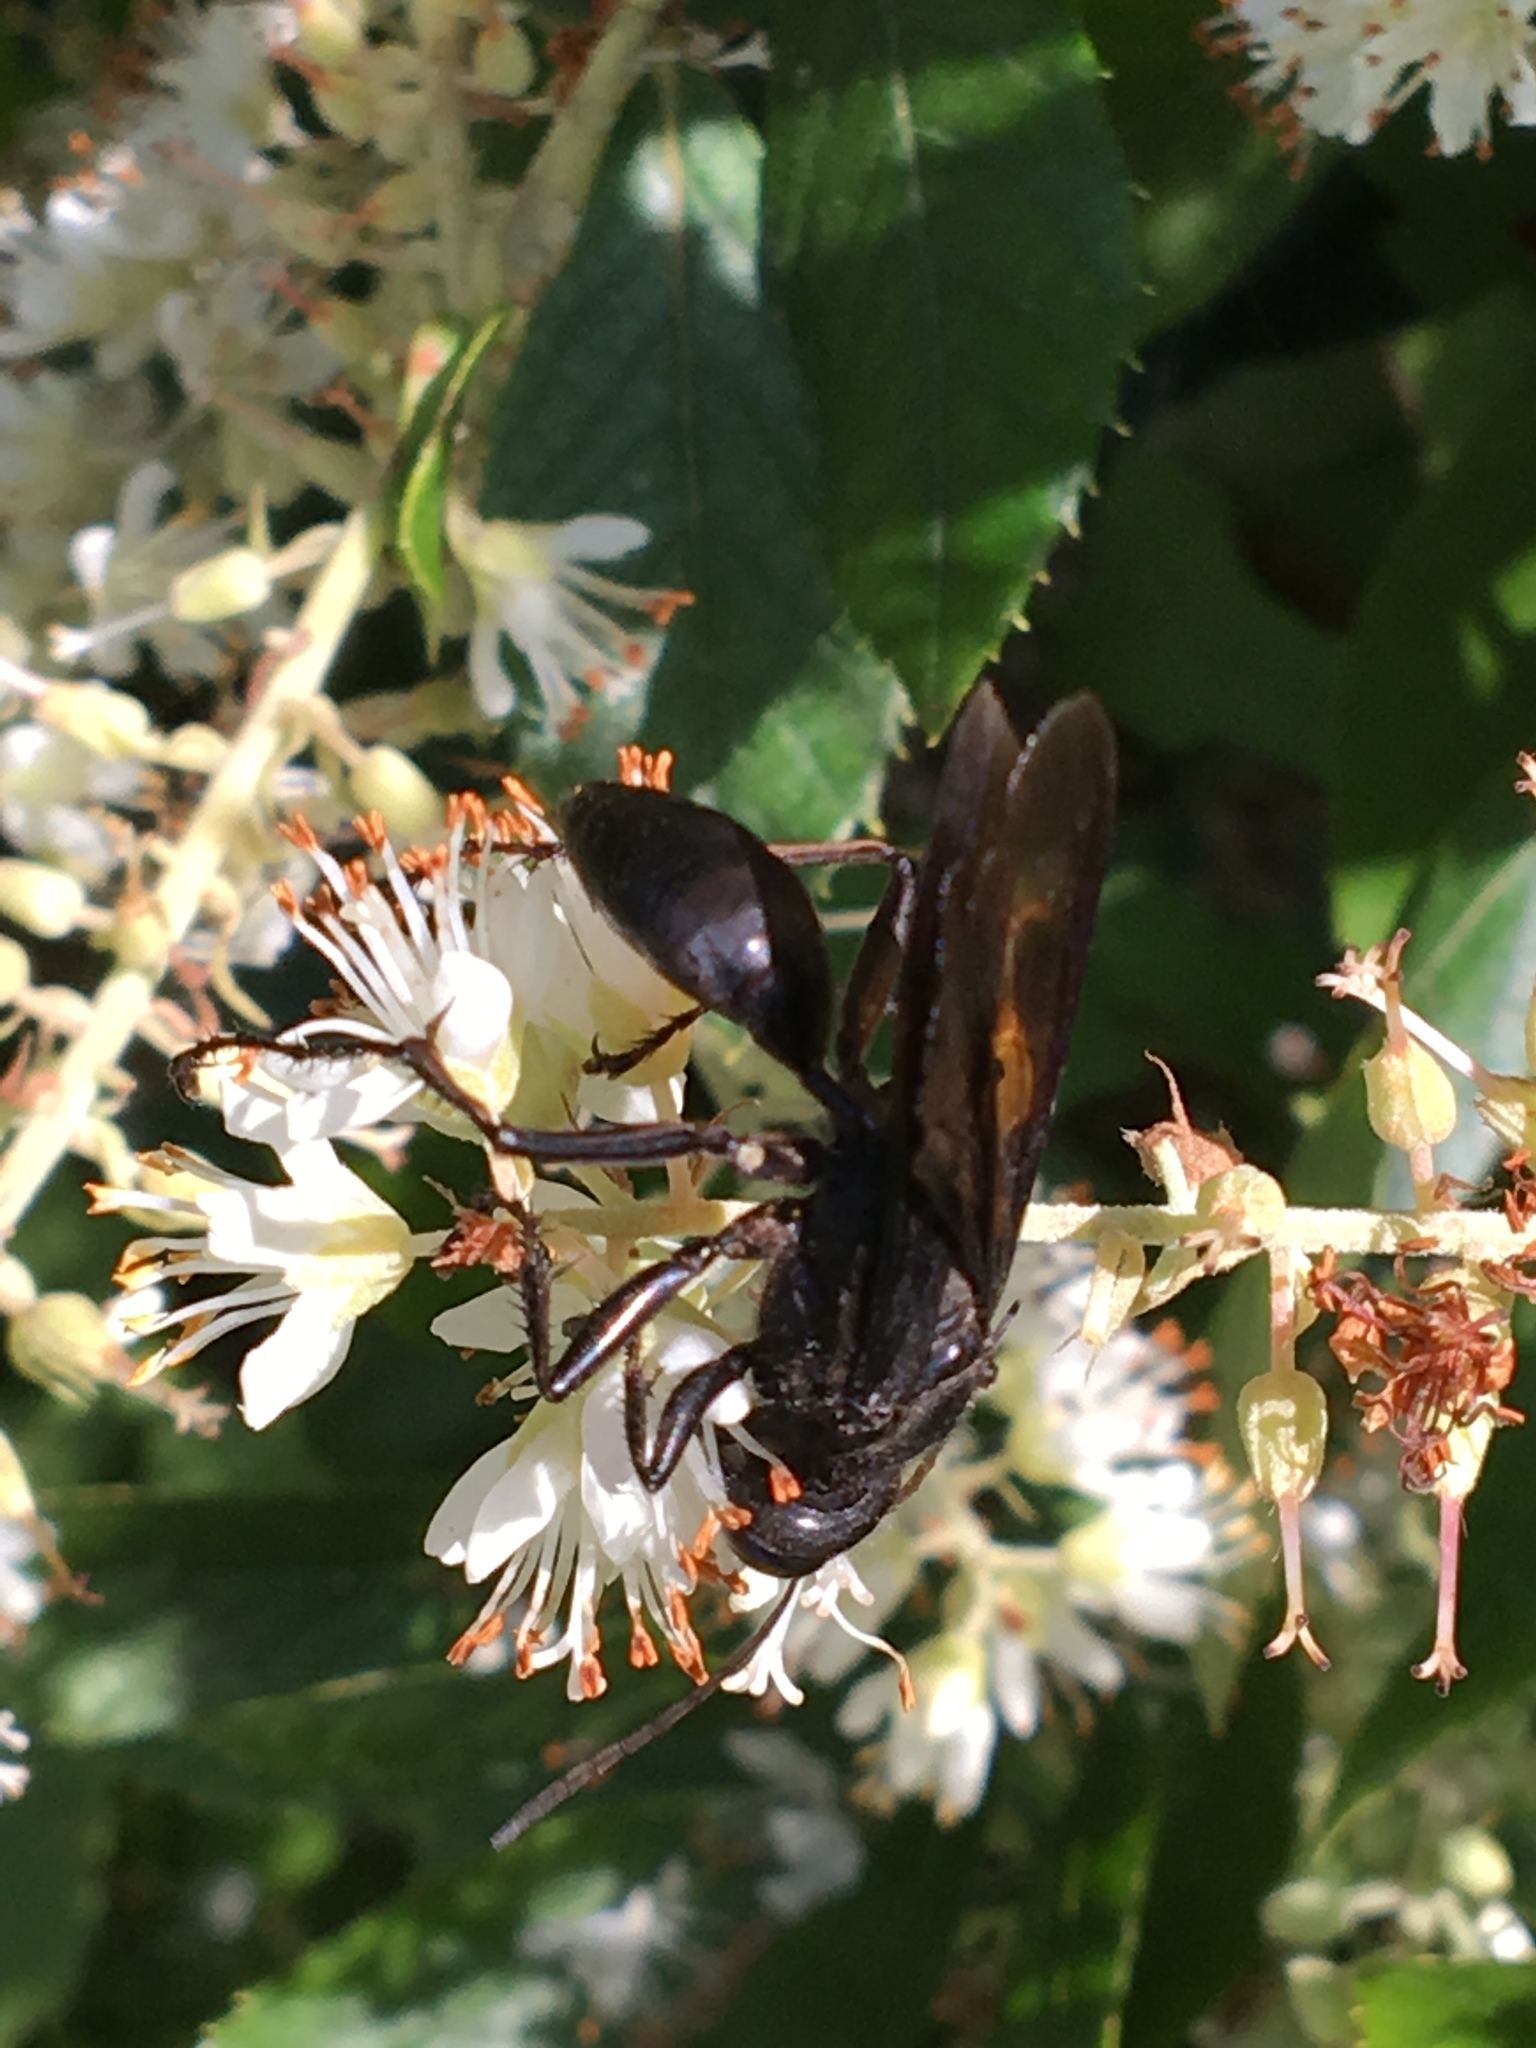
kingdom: Animalia
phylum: Arthropoda
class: Insecta
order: Hymenoptera
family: Sphecidae
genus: Sphex
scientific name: Sphex pensylvanicus
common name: Great black digger wasp
